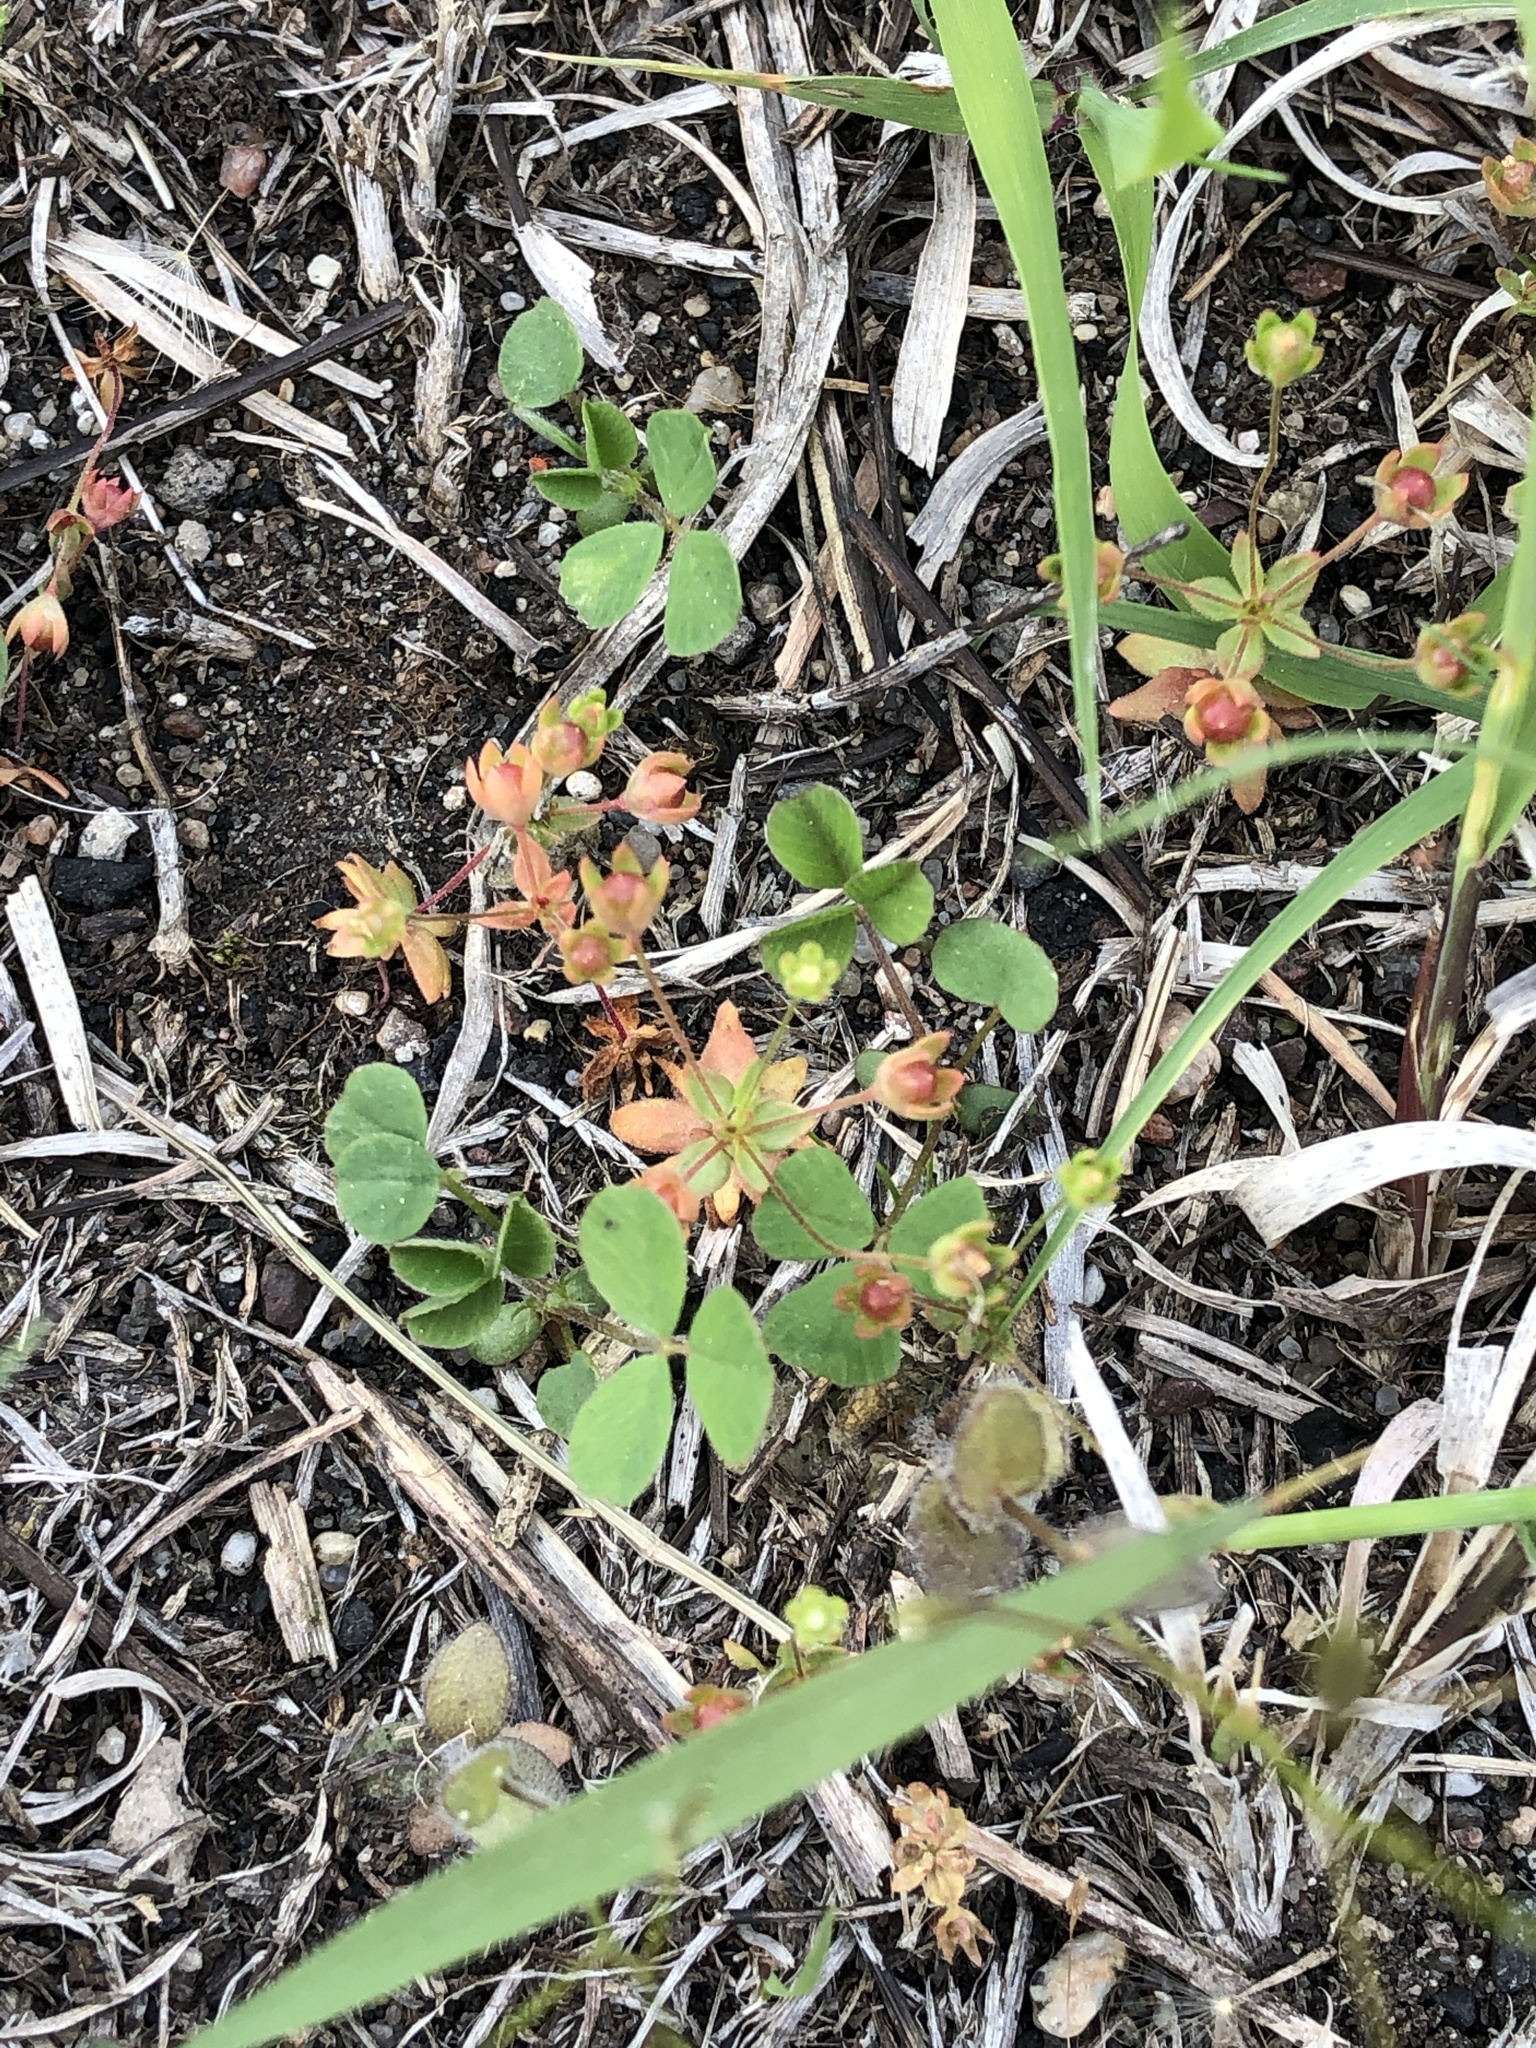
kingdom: Plantae
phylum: Tracheophyta
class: Magnoliopsida
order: Ericales
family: Primulaceae
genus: Androsace
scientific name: Androsace occidentalis
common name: West rock-jasmine
